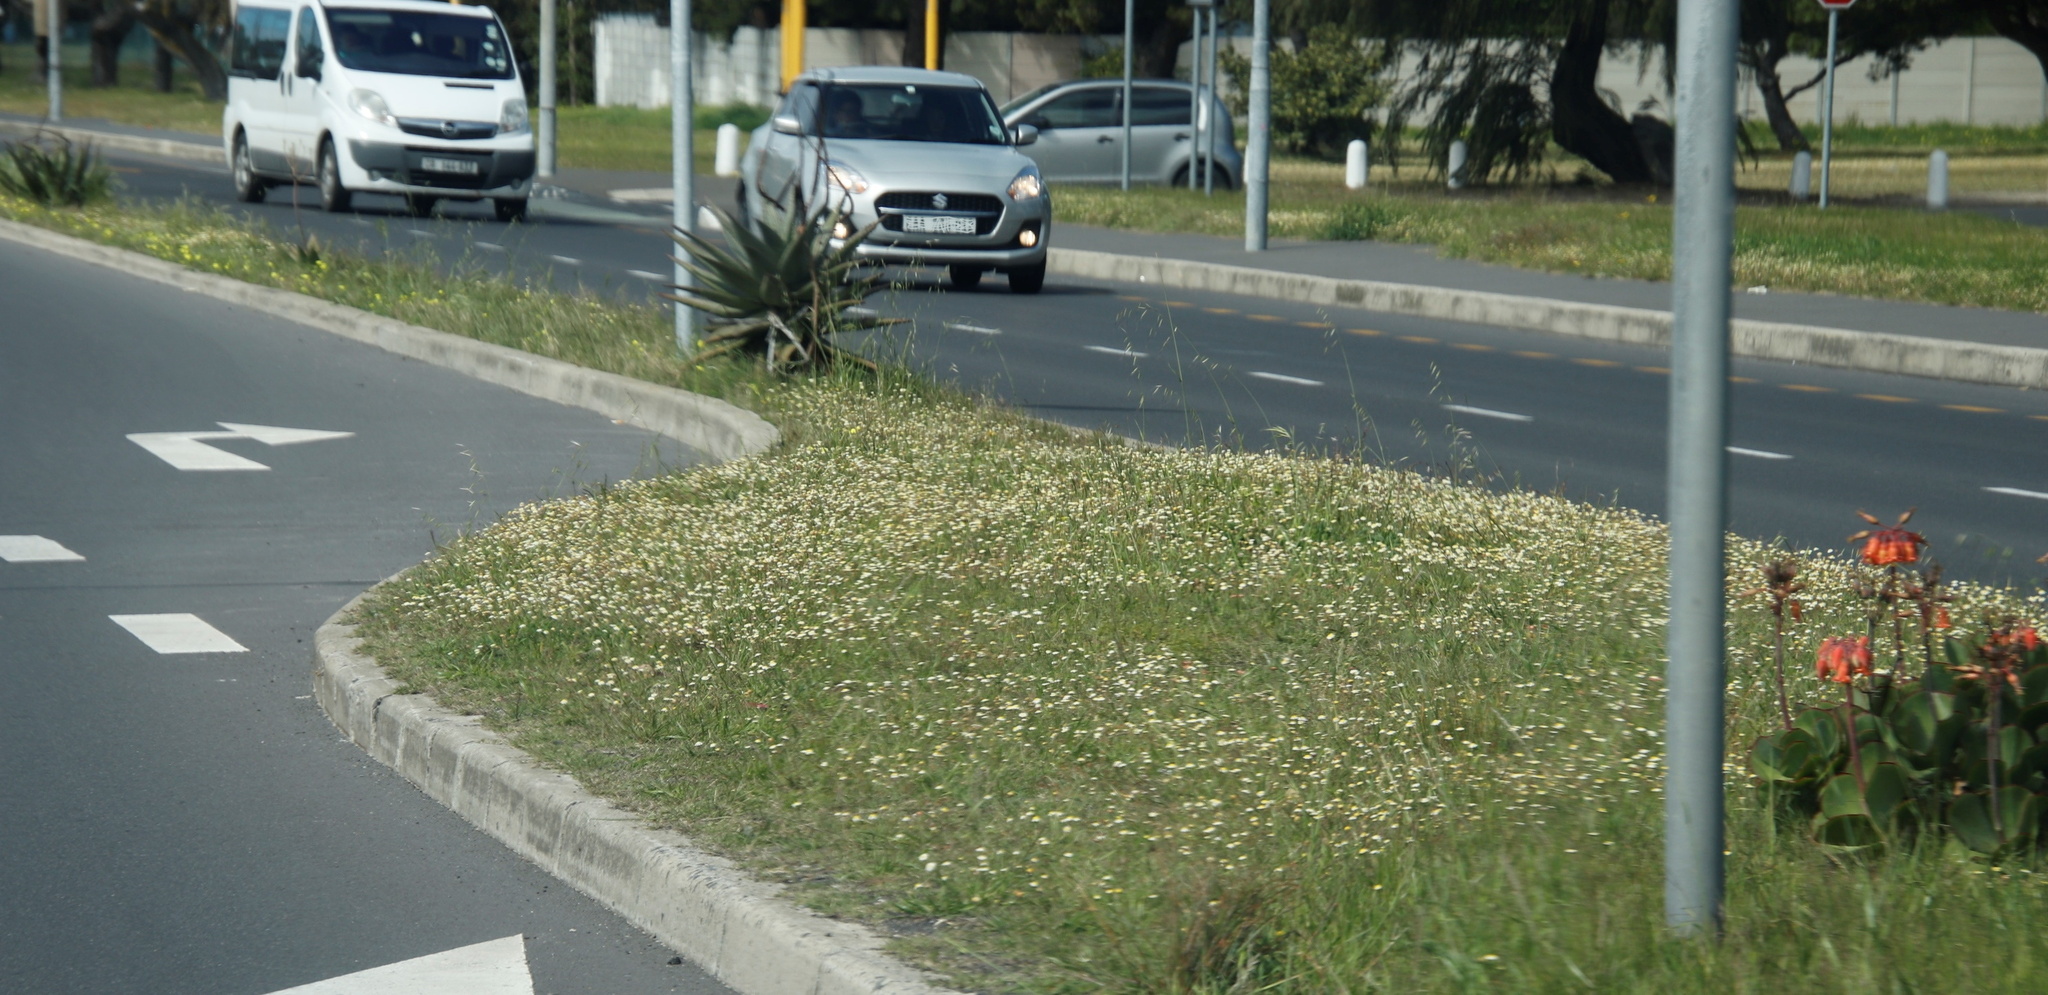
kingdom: Plantae
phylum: Tracheophyta
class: Magnoliopsida
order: Asterales
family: Asteraceae
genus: Cotula
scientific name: Cotula turbinata
